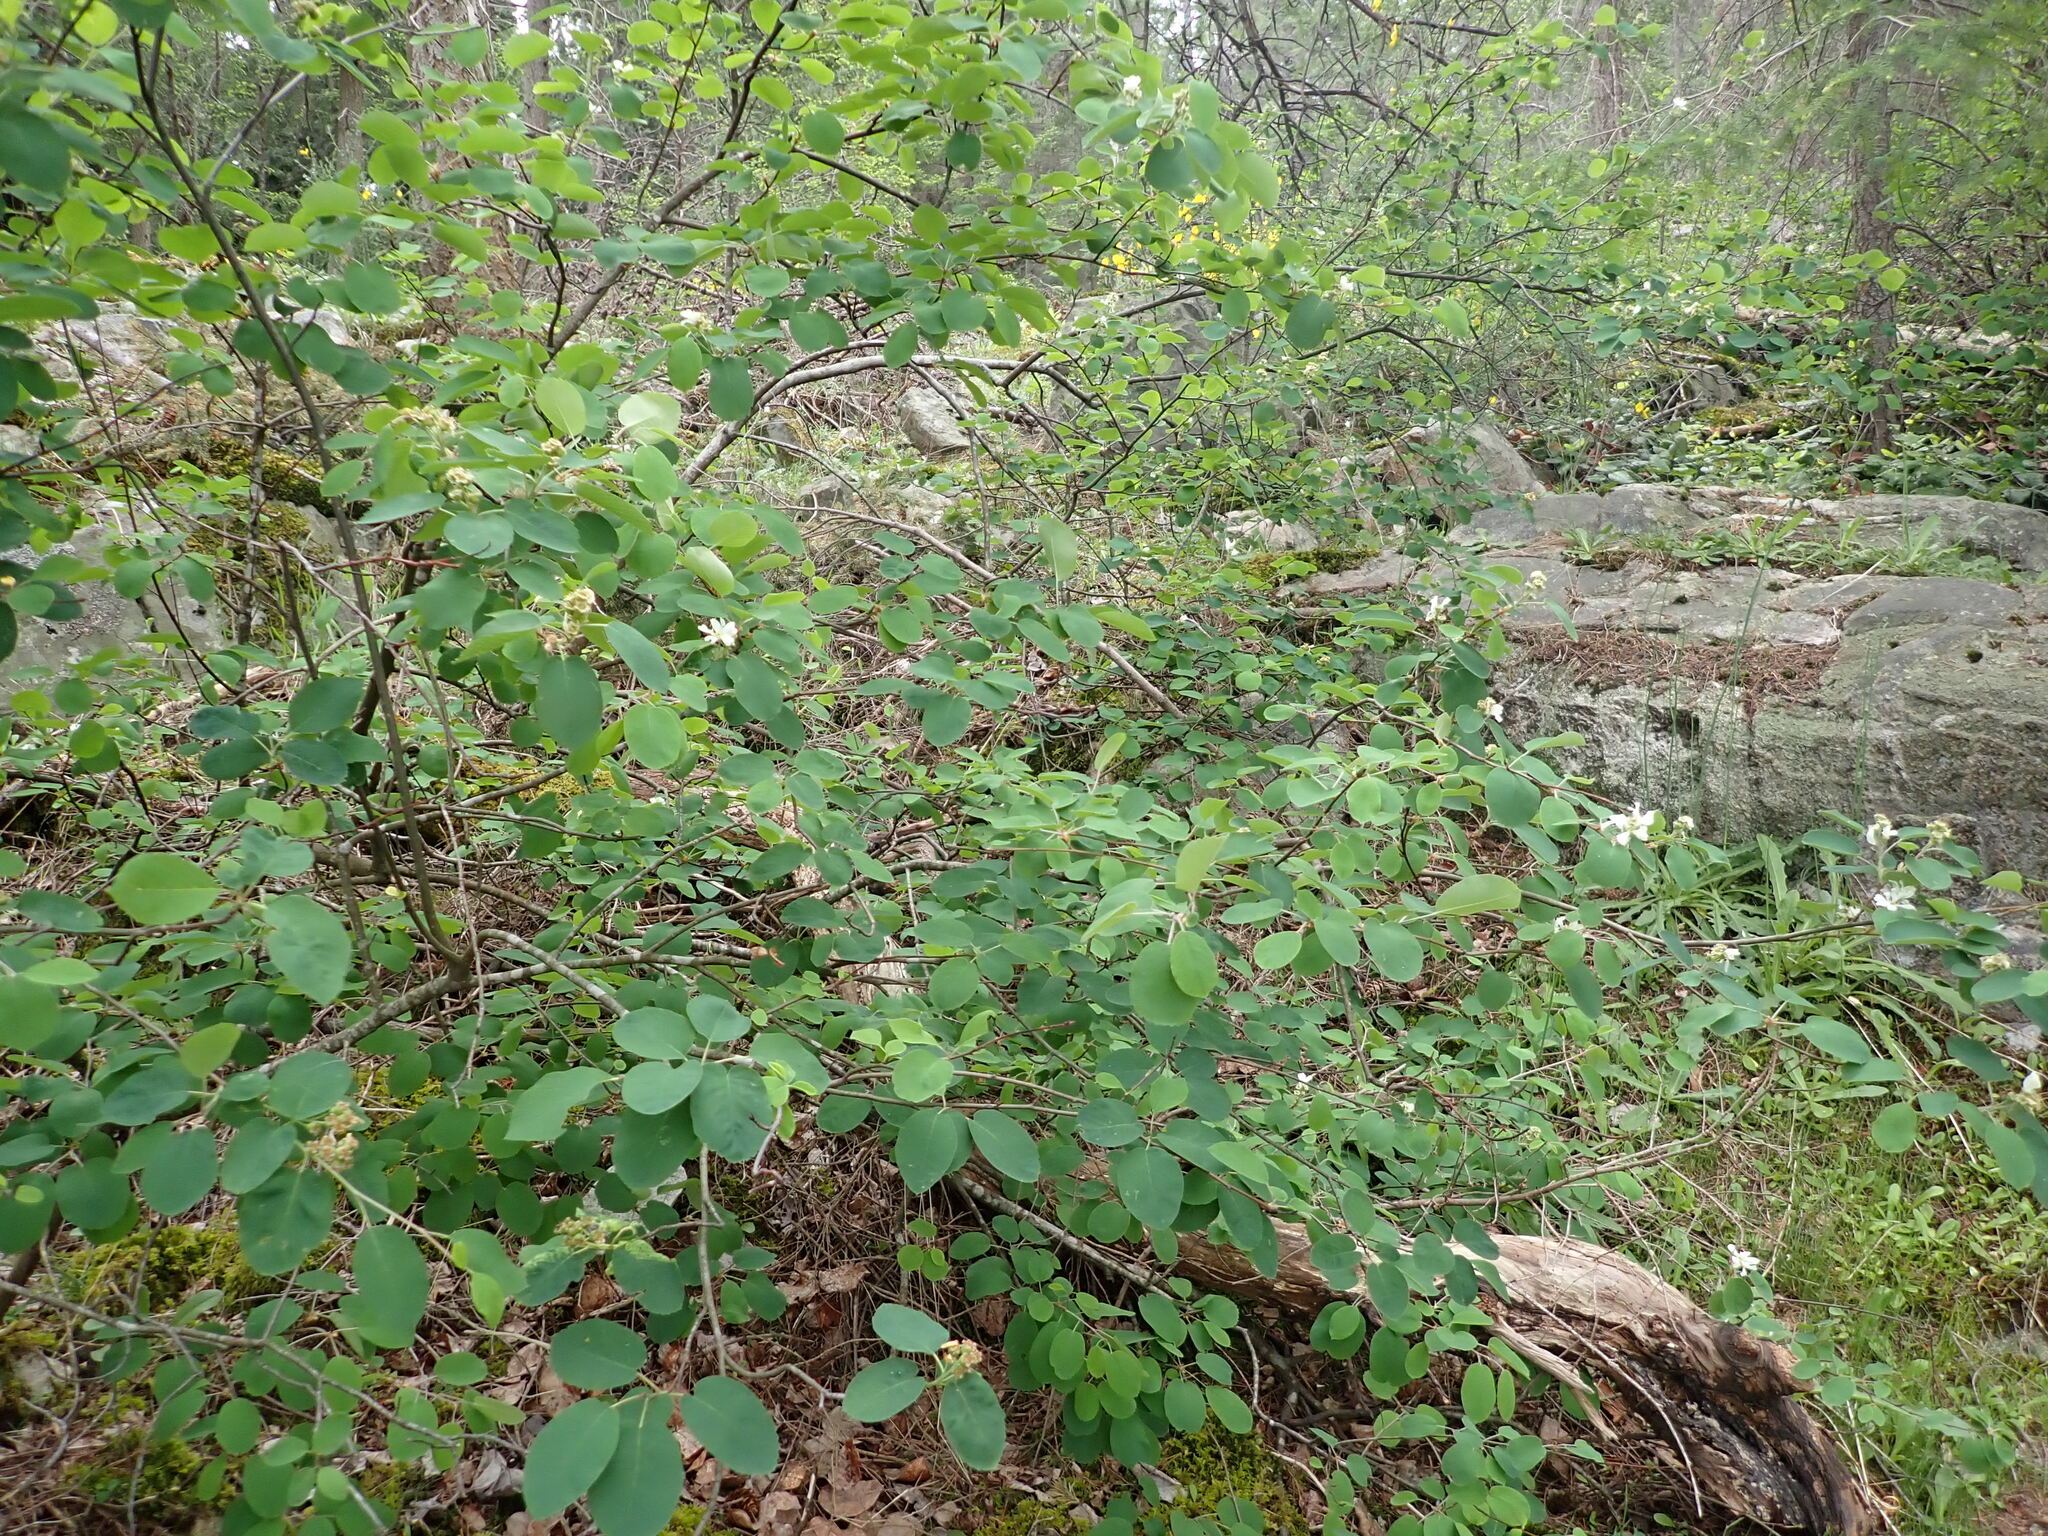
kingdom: Plantae
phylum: Tracheophyta
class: Magnoliopsida
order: Rosales
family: Rosaceae
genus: Amelanchier
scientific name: Amelanchier alnifolia
